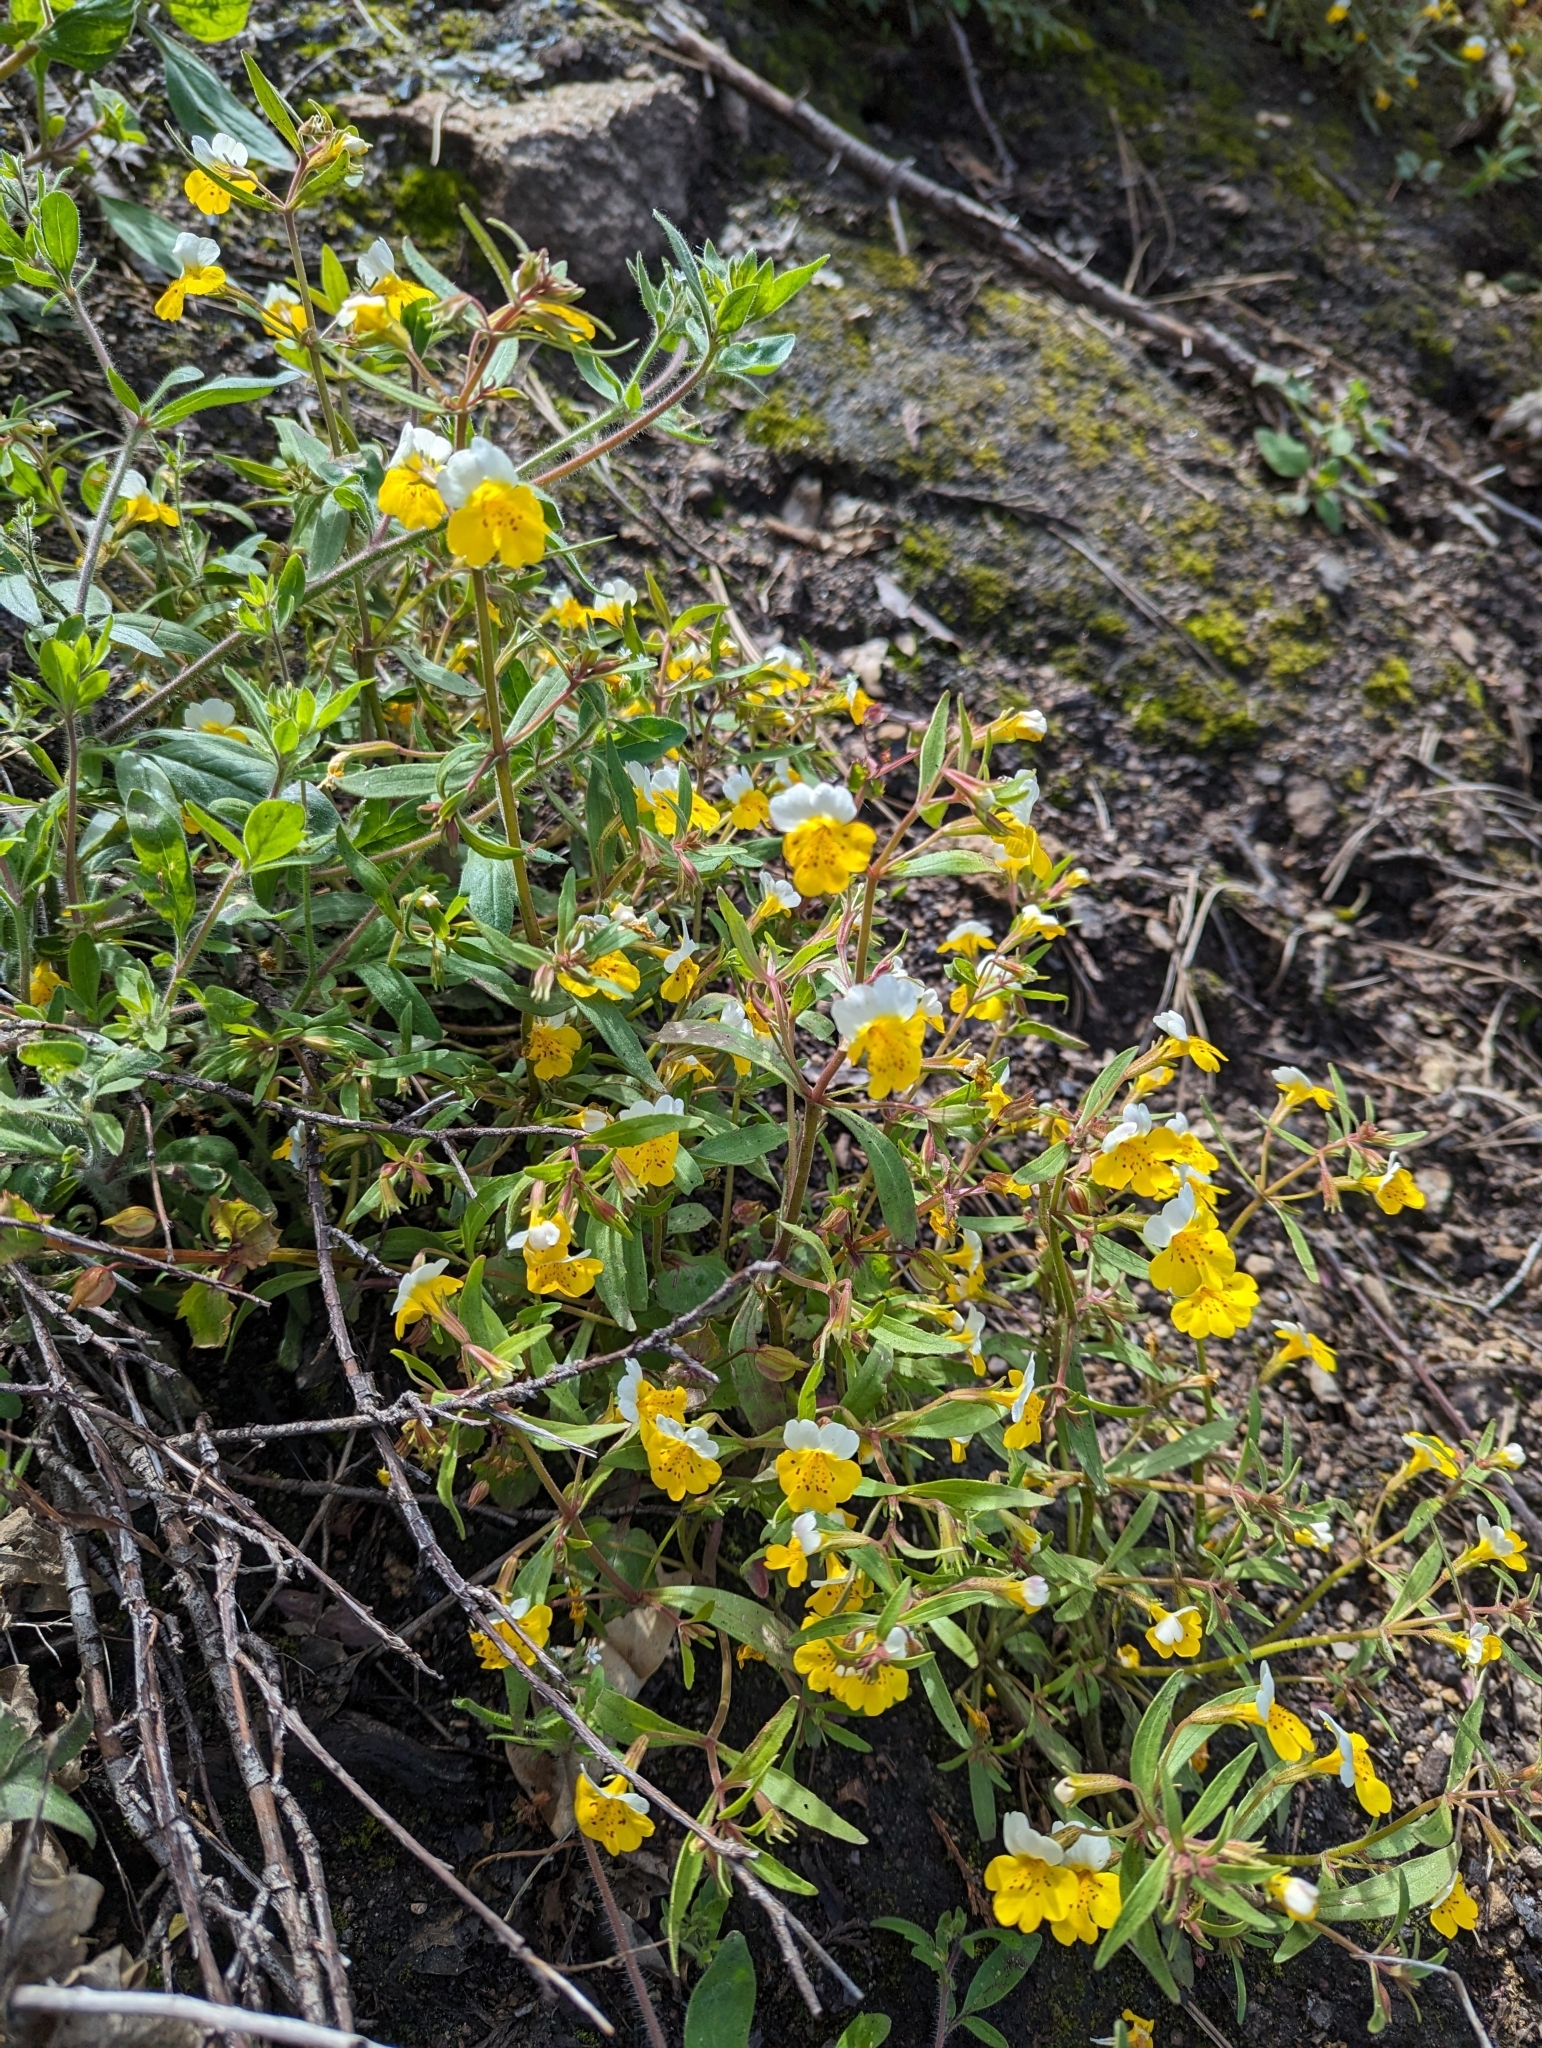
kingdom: Plantae
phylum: Tracheophyta
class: Magnoliopsida
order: Lamiales
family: Phrymaceae
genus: Erythranthe
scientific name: Erythranthe bicolor
